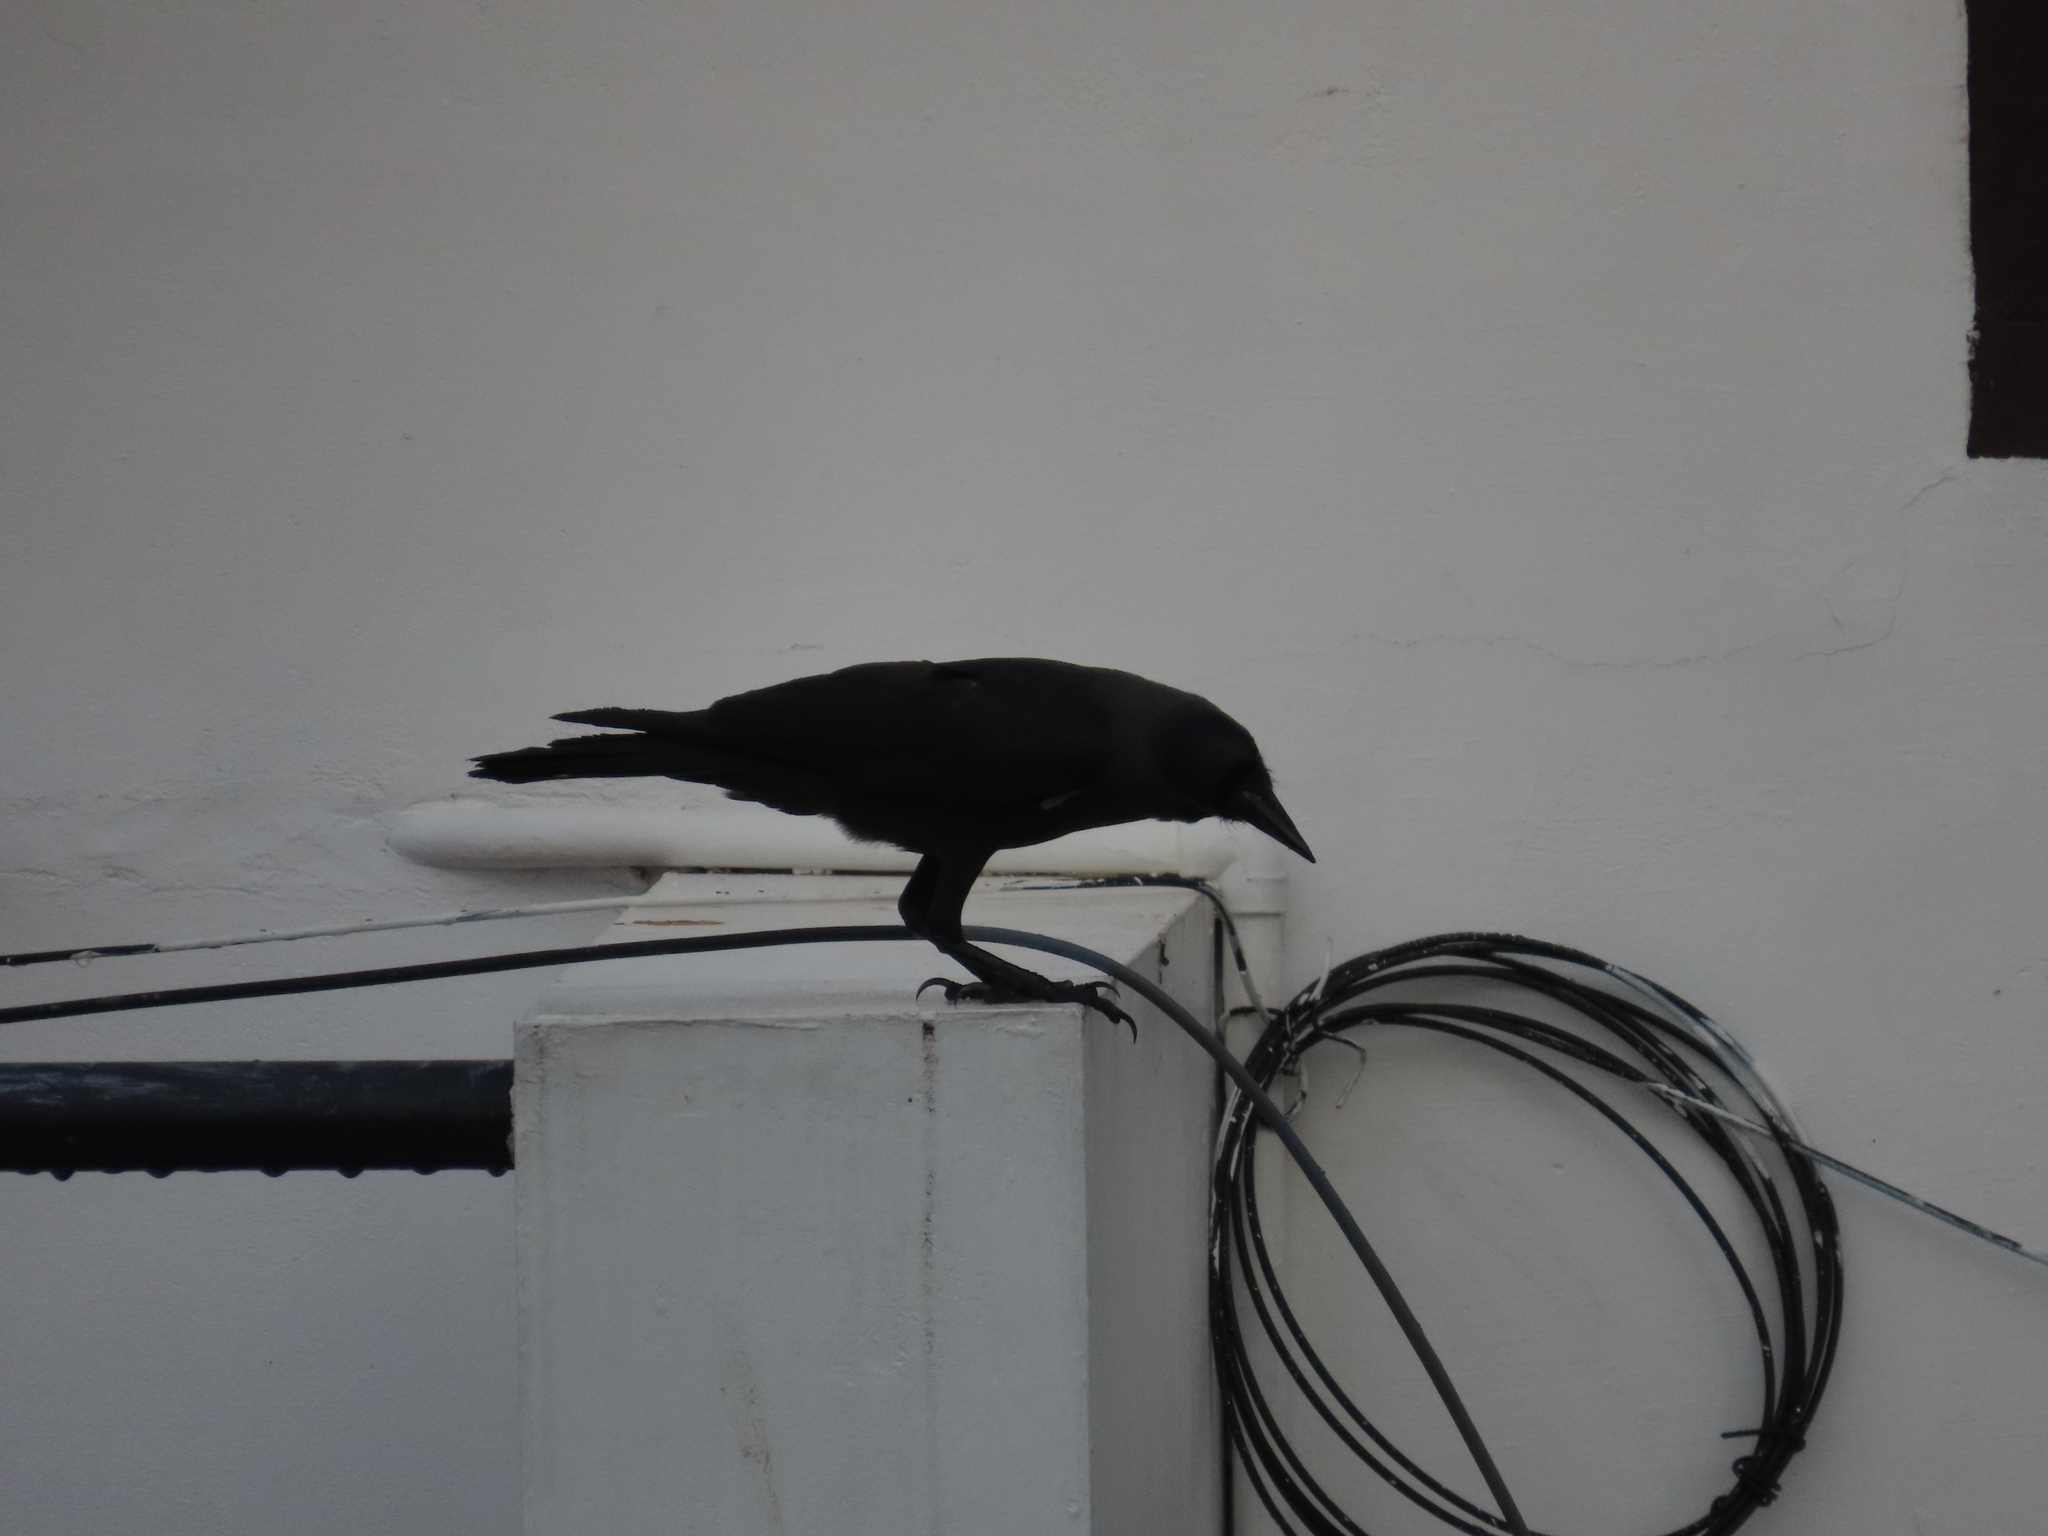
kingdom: Animalia
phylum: Chordata
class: Aves
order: Passeriformes
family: Corvidae
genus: Corvus
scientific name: Corvus splendens
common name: House crow
